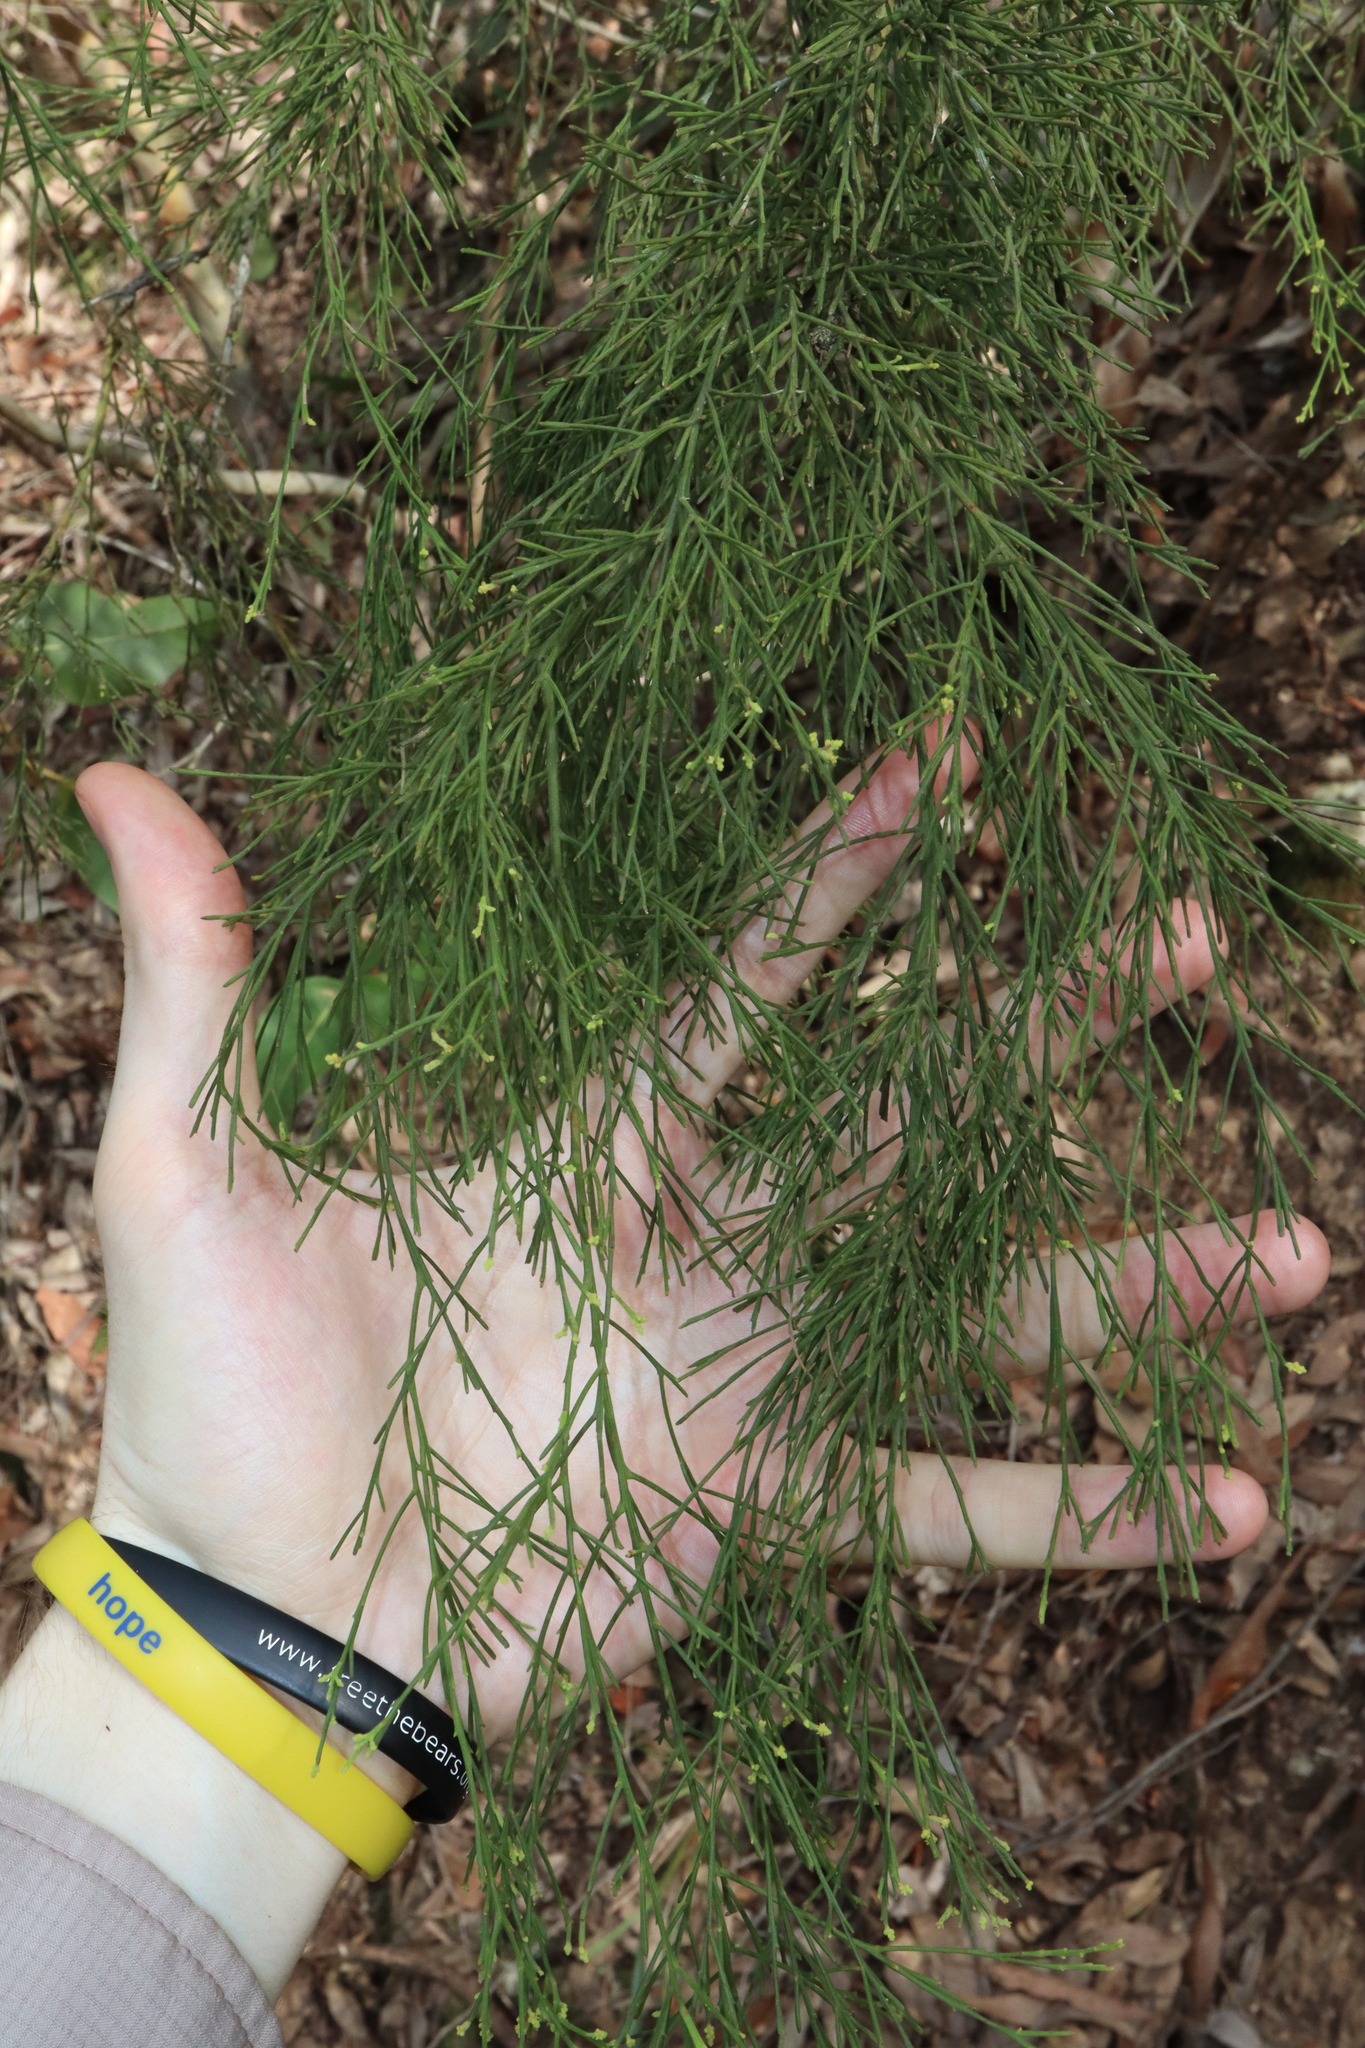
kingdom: Plantae
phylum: Tracheophyta
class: Magnoliopsida
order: Santalales
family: Santalaceae
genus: Exocarpos
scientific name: Exocarpos cupressiformis
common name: Cherry ballart
